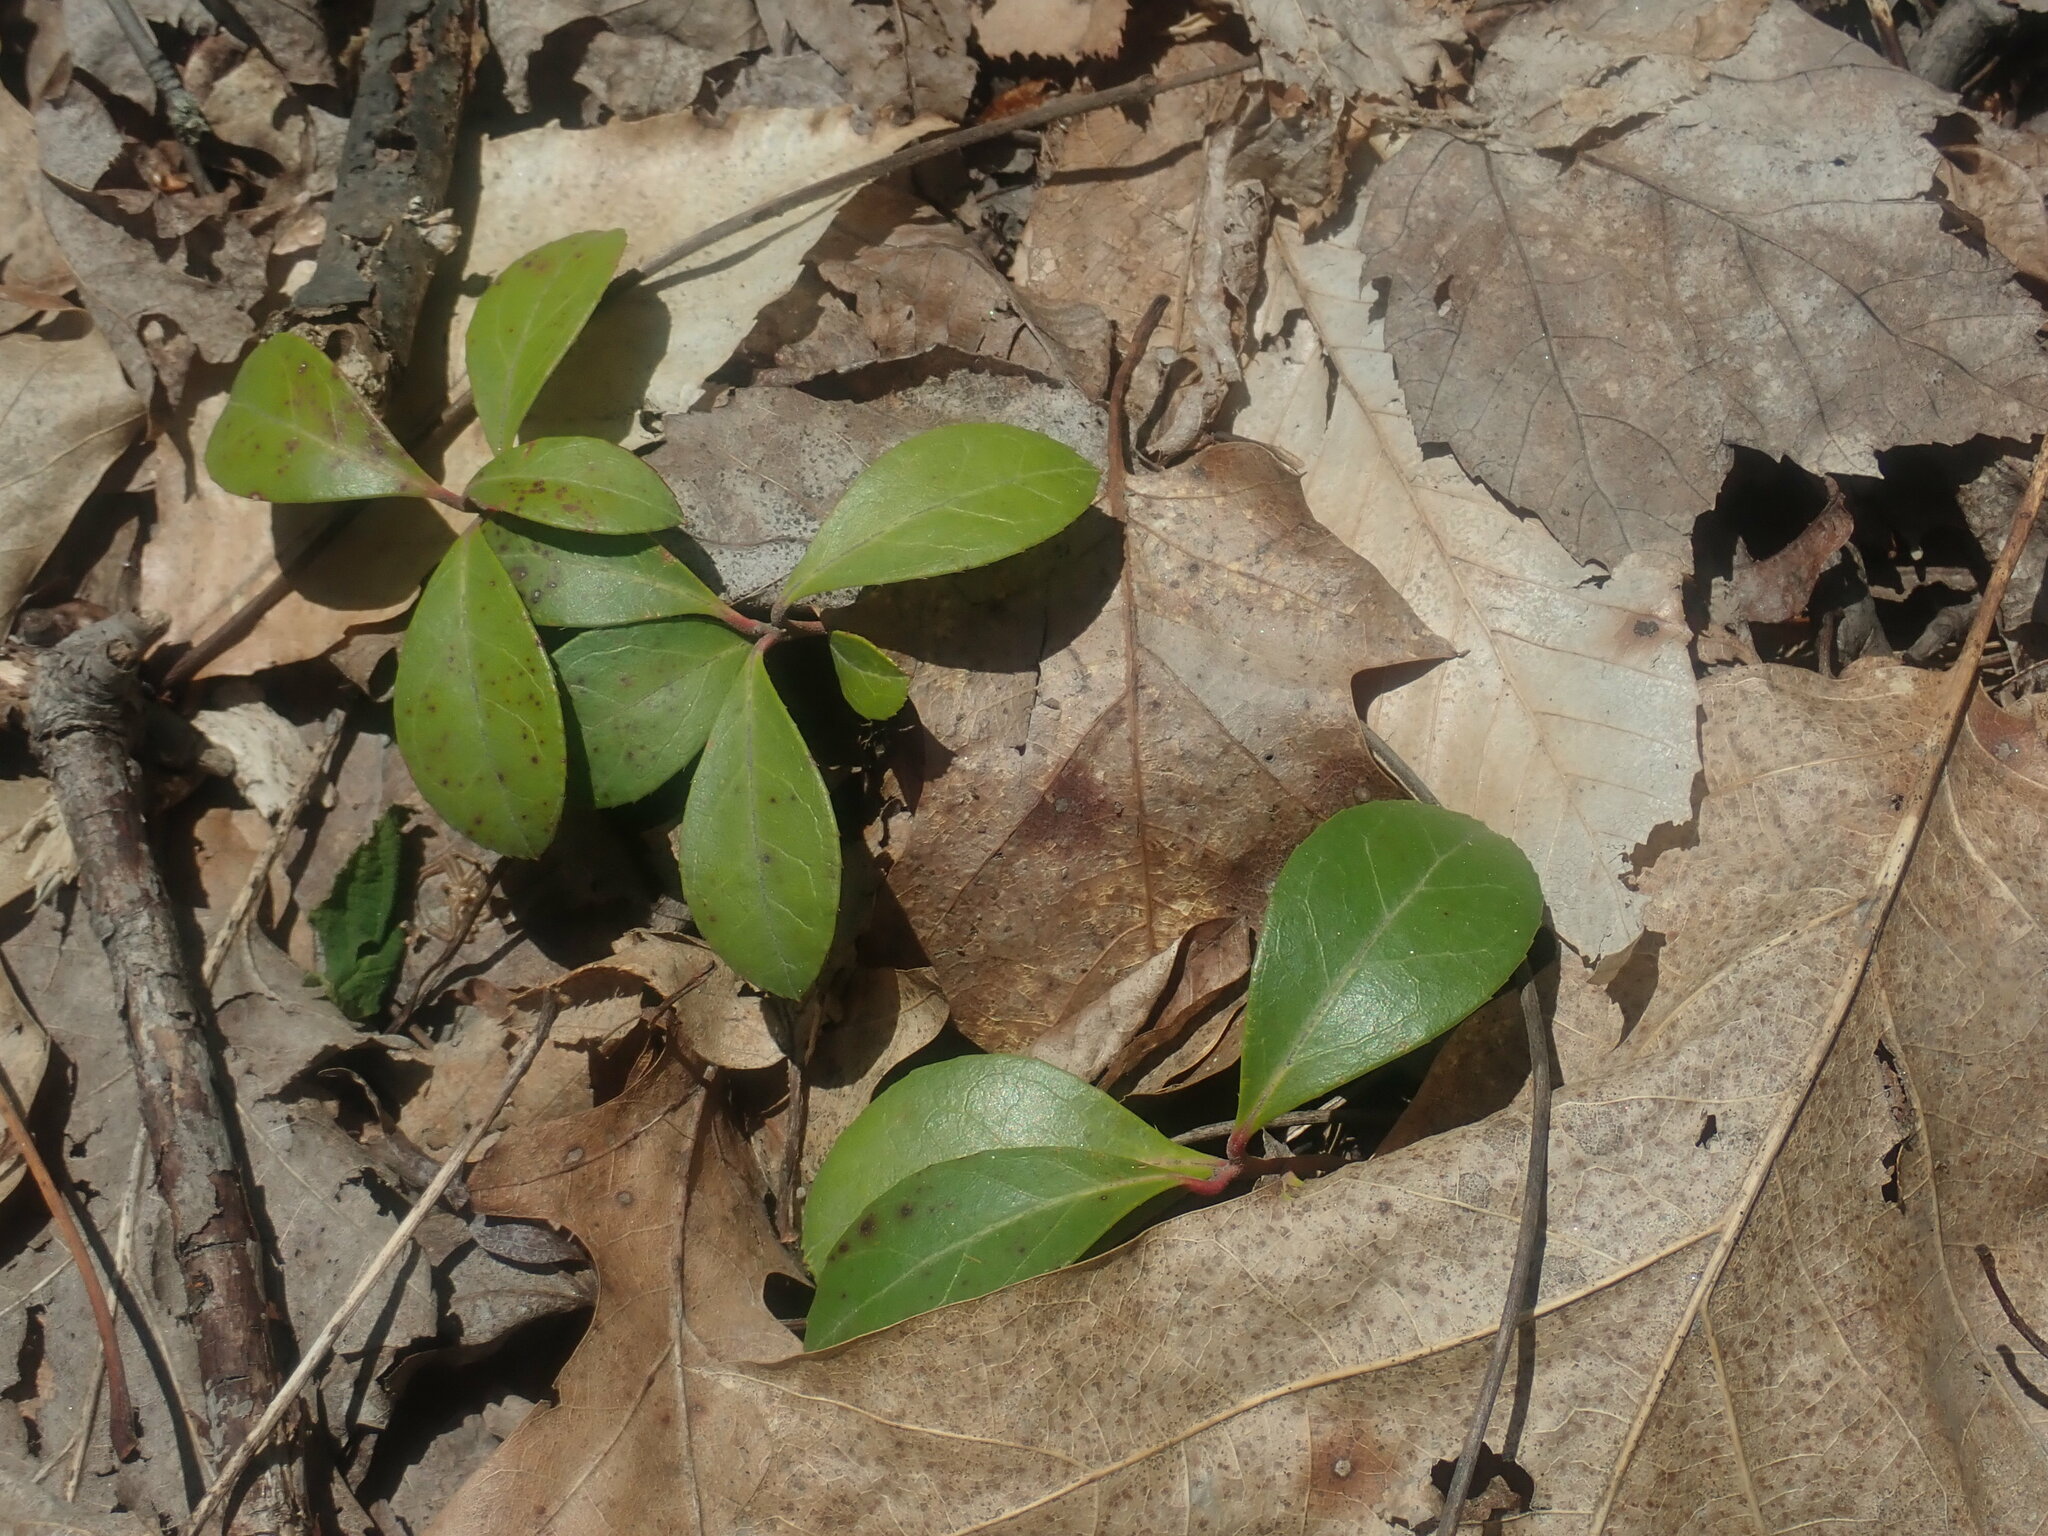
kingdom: Plantae
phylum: Tracheophyta
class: Magnoliopsida
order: Ericales
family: Ericaceae
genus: Gaultheria
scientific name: Gaultheria procumbens
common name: Checkerberry
